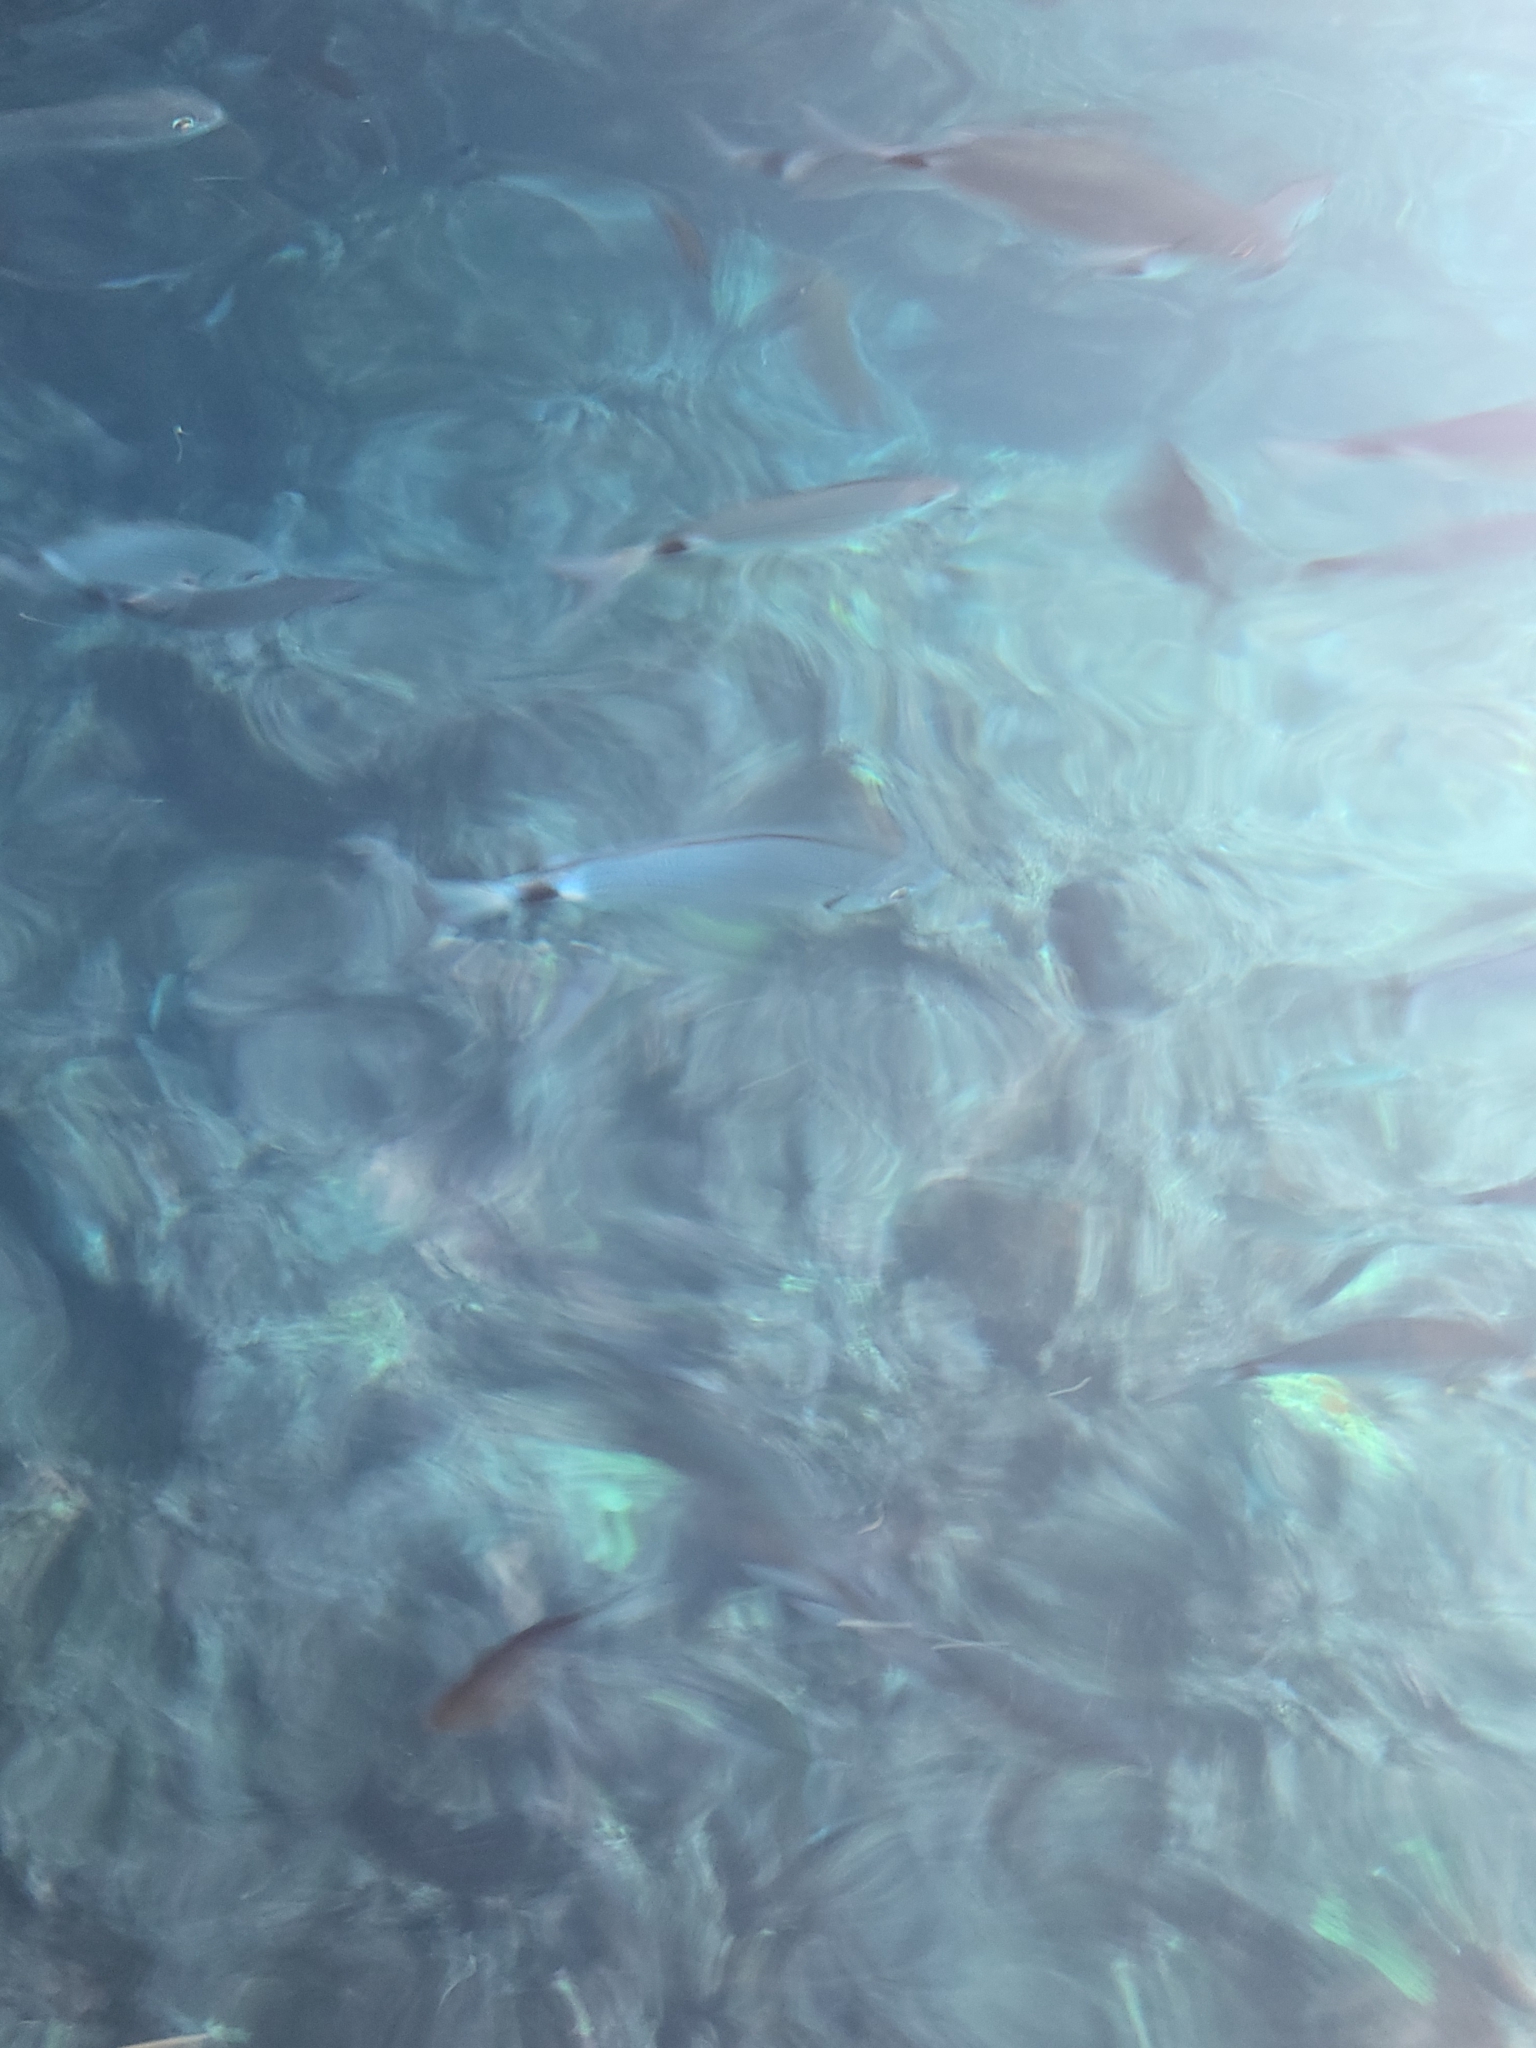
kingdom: Animalia
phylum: Chordata
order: Perciformes
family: Sparidae
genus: Oblada
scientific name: Oblada melanura
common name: Saddled seabream
